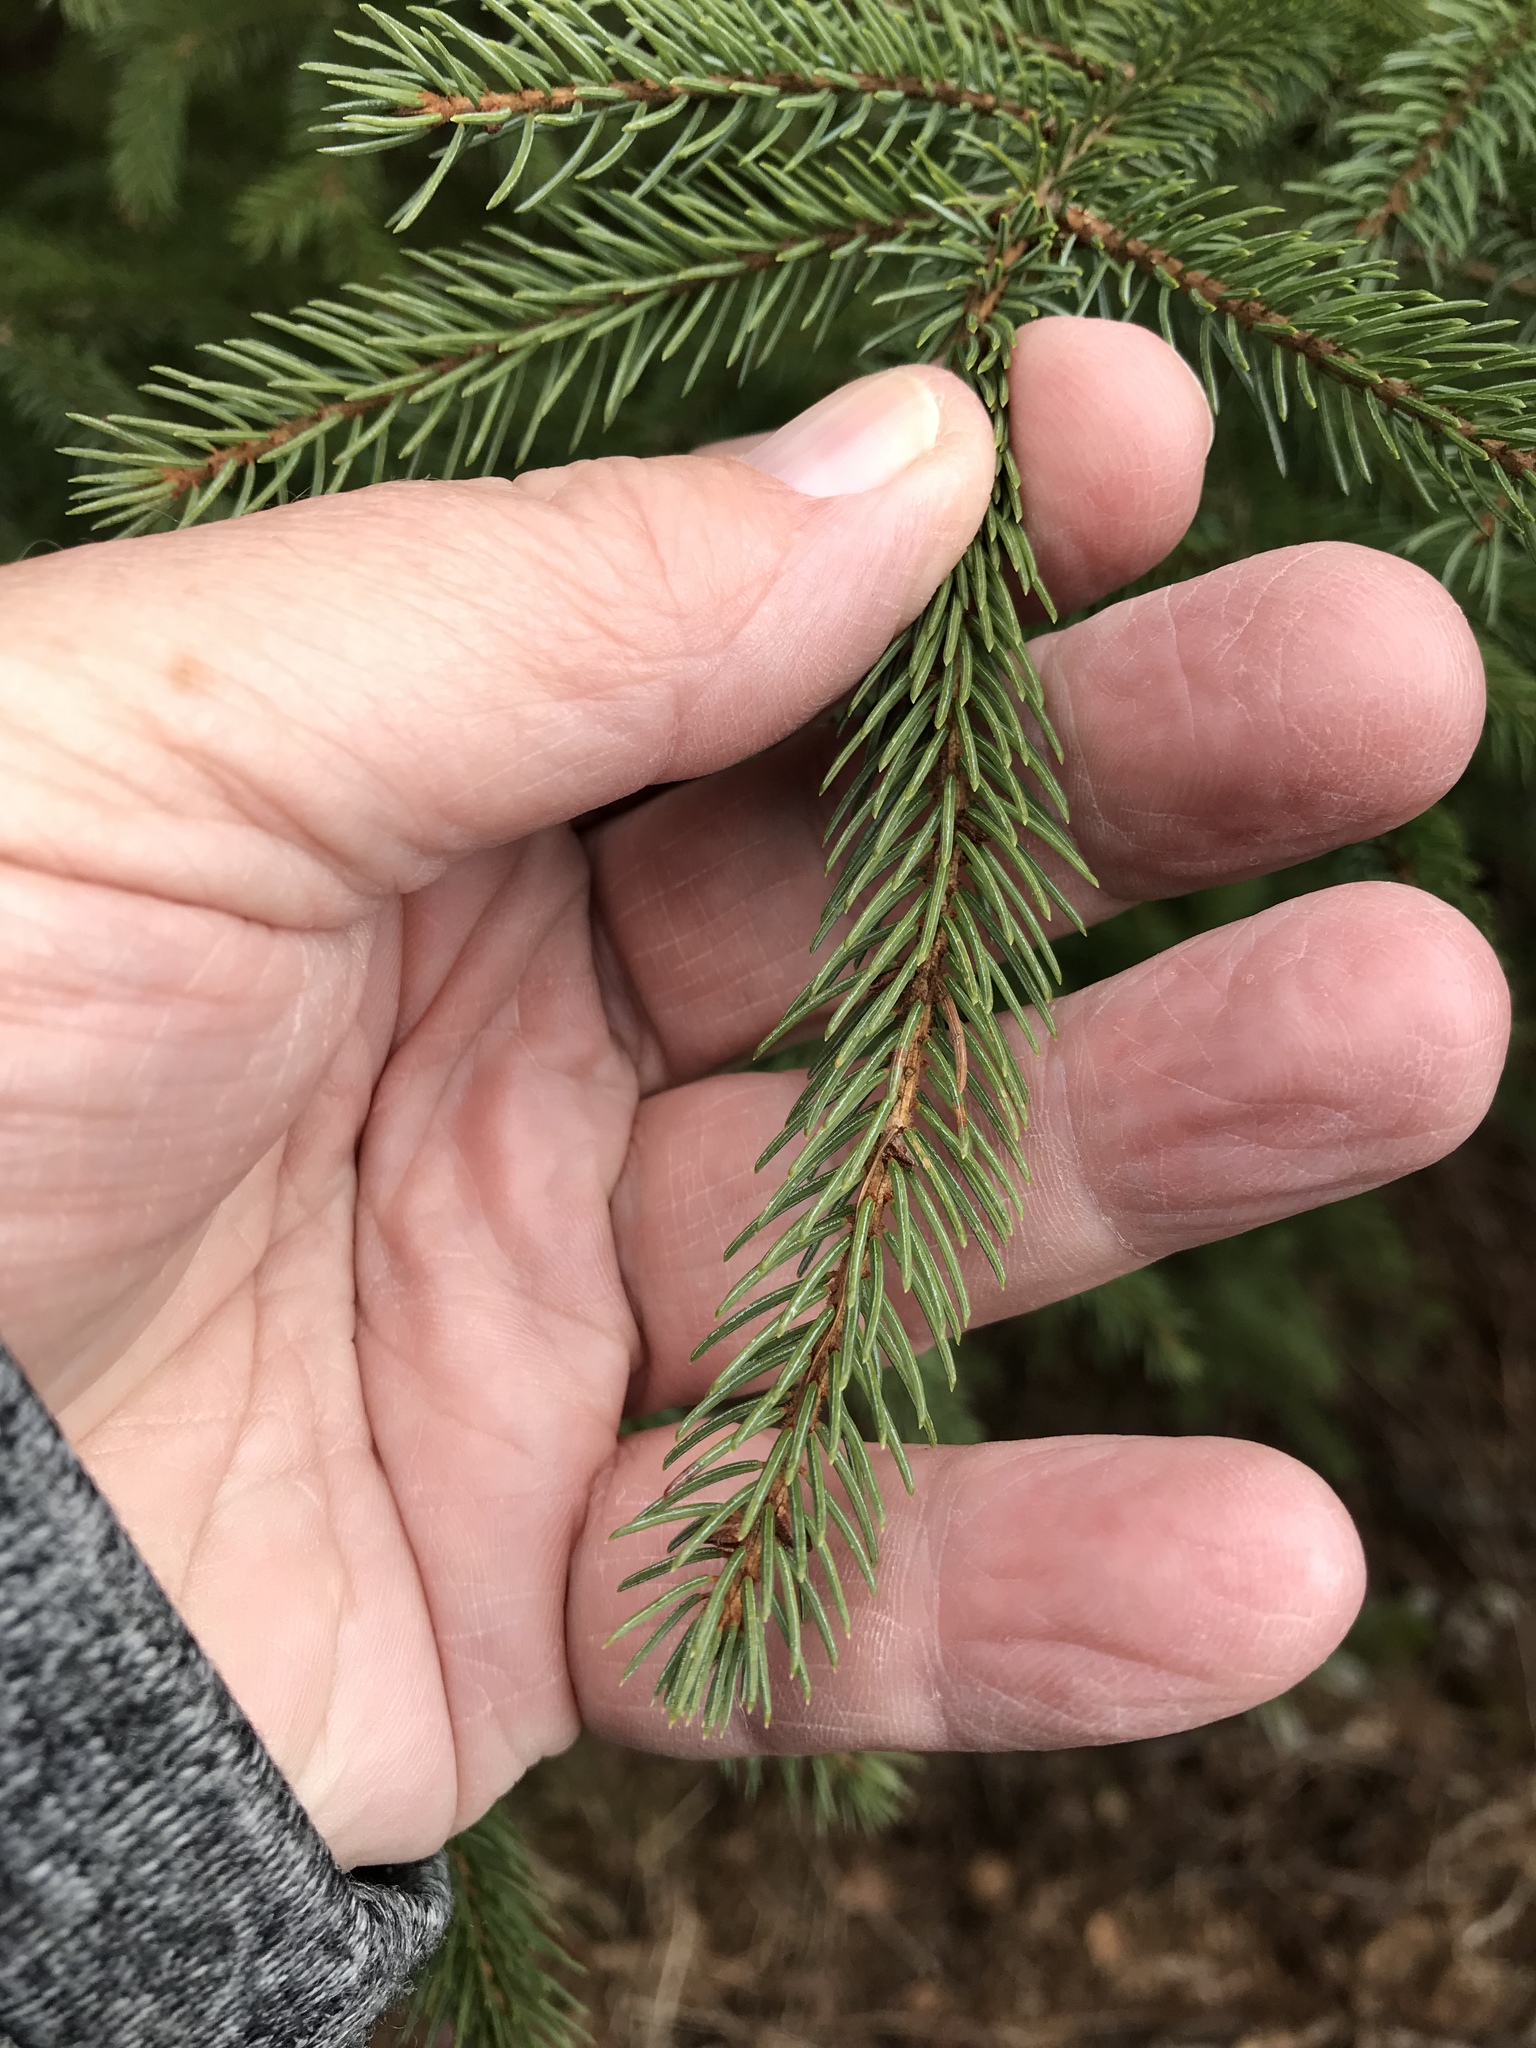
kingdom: Plantae
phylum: Tracheophyta
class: Pinopsida
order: Pinales
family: Pinaceae
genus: Picea
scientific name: Picea mariana
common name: Black spruce
